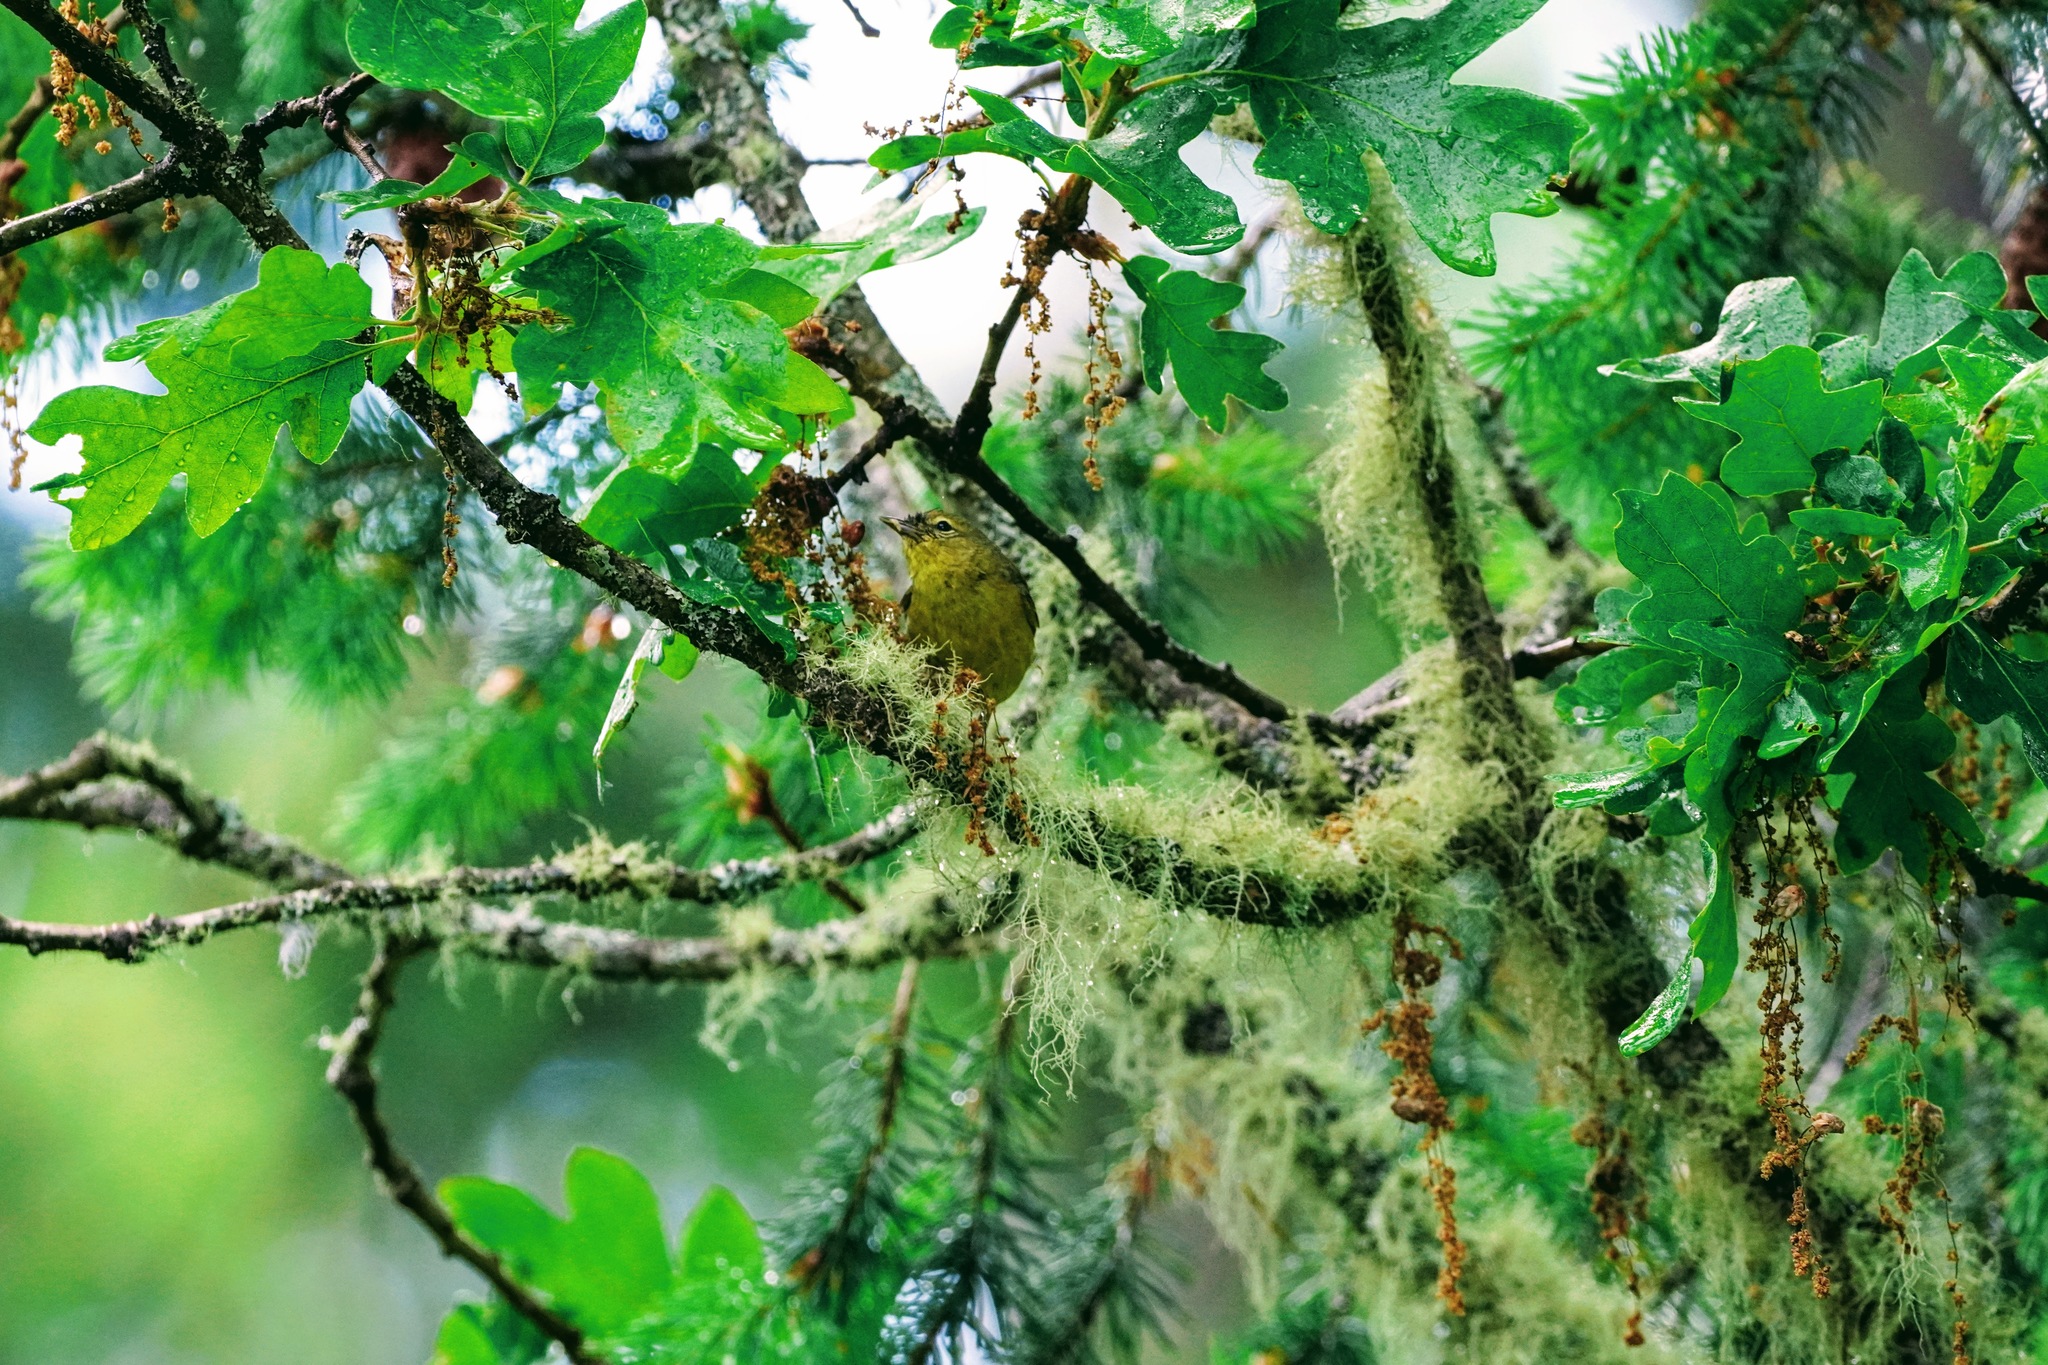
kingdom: Animalia
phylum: Chordata
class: Aves
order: Passeriformes
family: Parulidae
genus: Leiothlypis
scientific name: Leiothlypis celata
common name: Orange-crowned warbler
